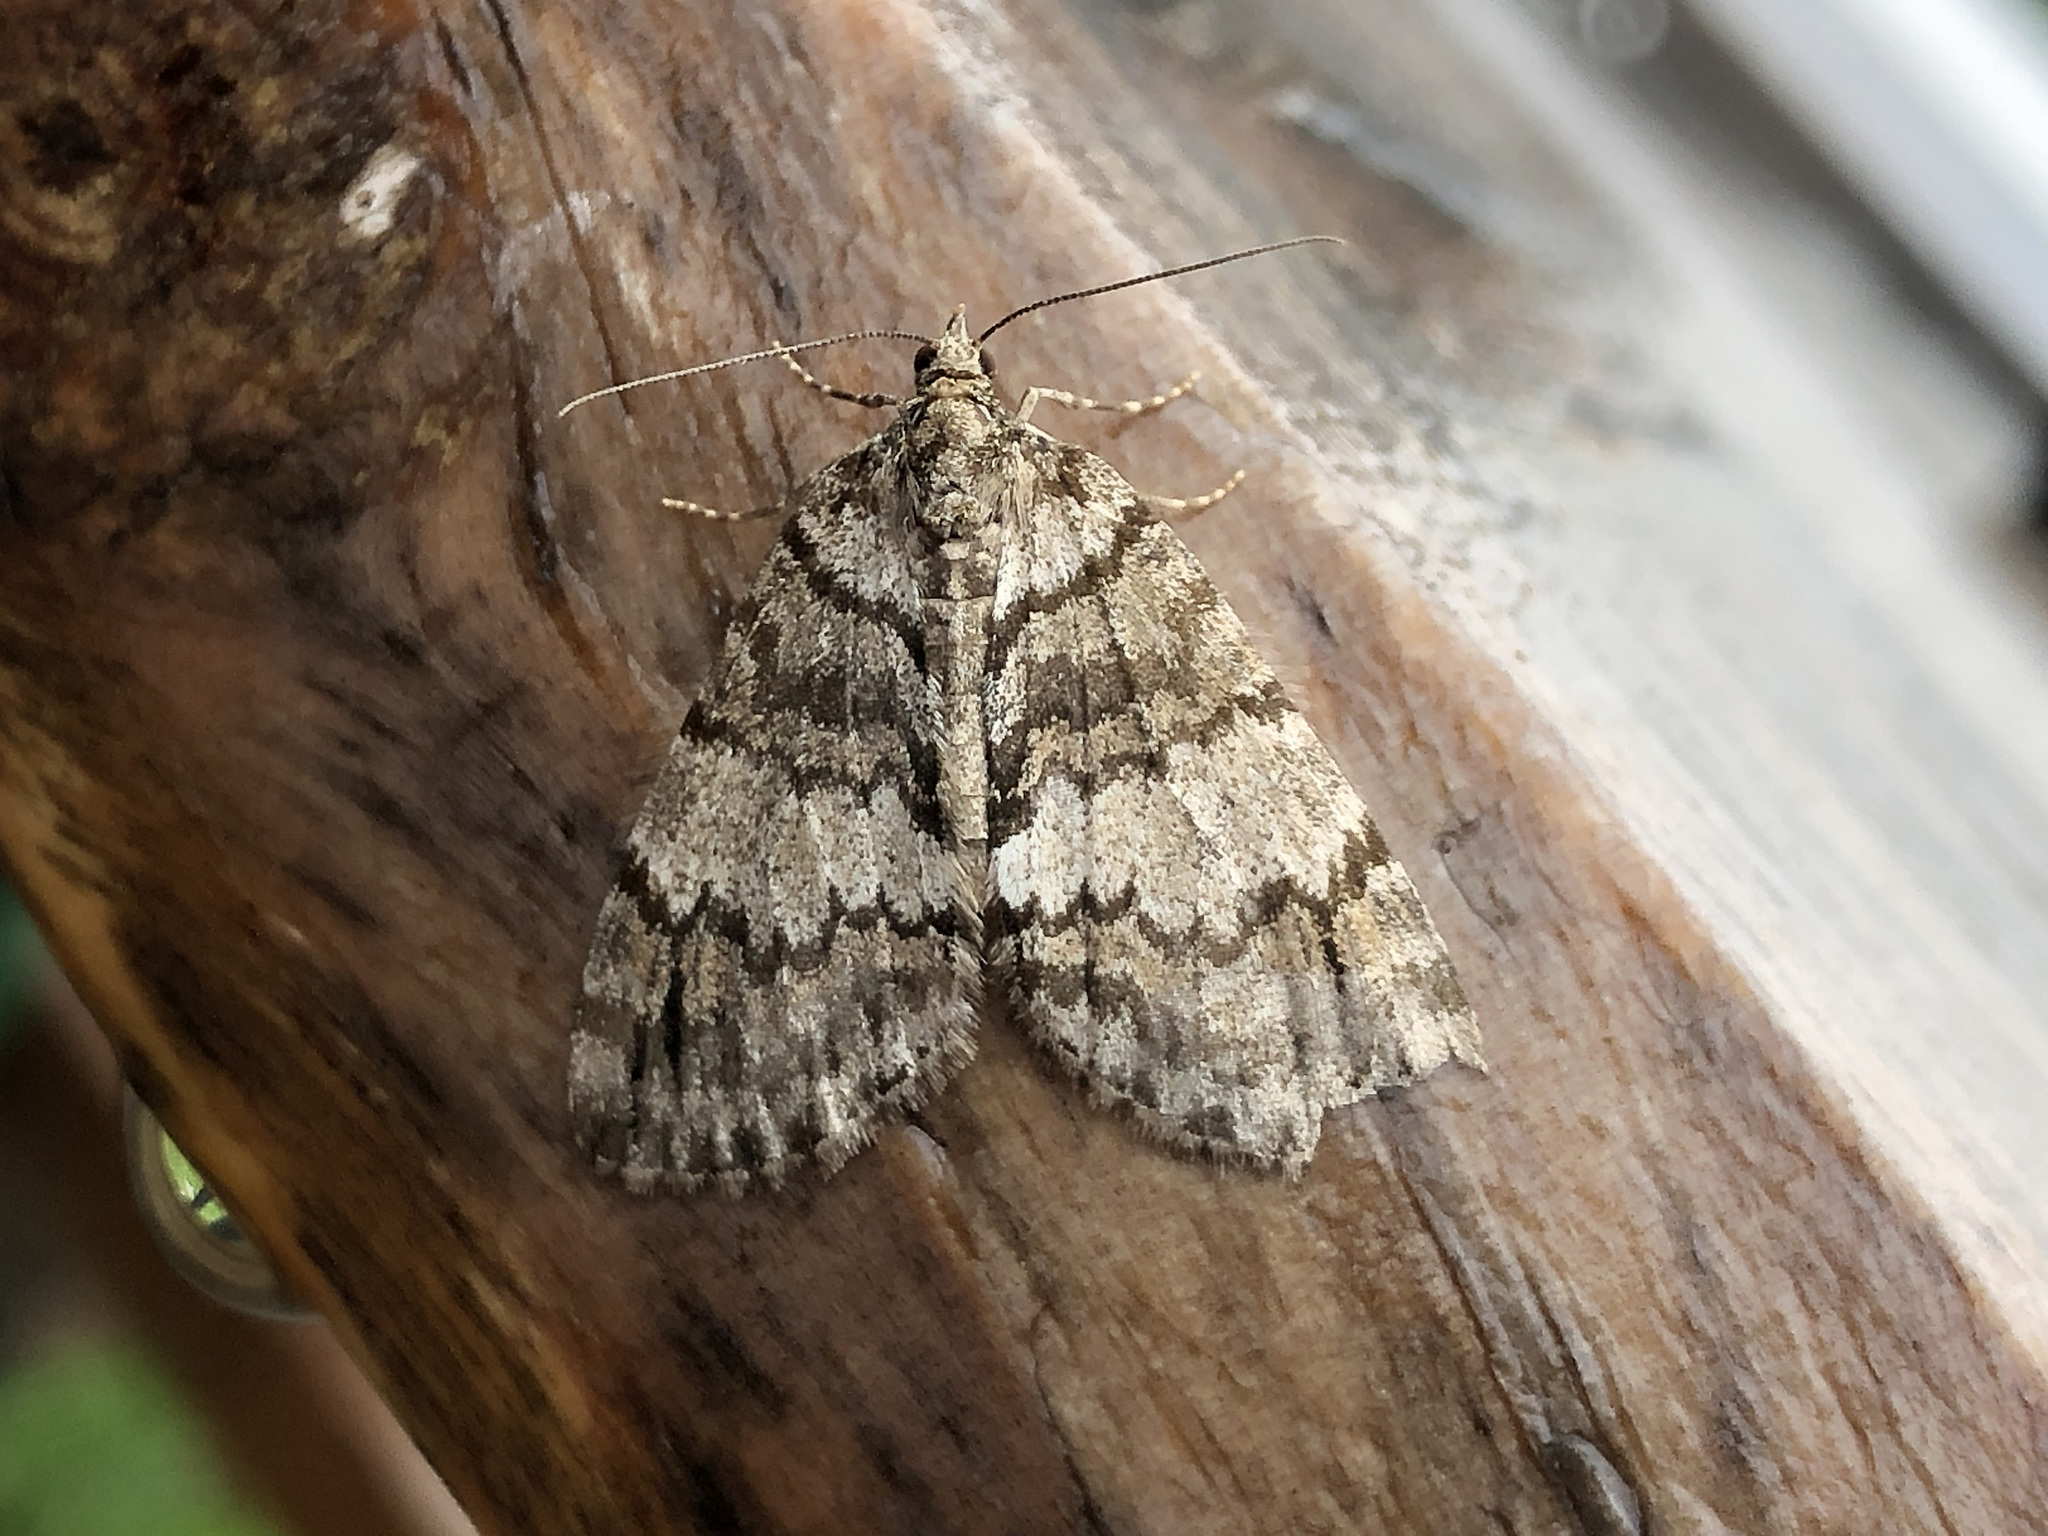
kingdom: Animalia
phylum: Arthropoda
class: Insecta
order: Lepidoptera
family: Geometridae
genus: Hydriomena
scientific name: Hydriomena impluviata
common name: May highflyer
